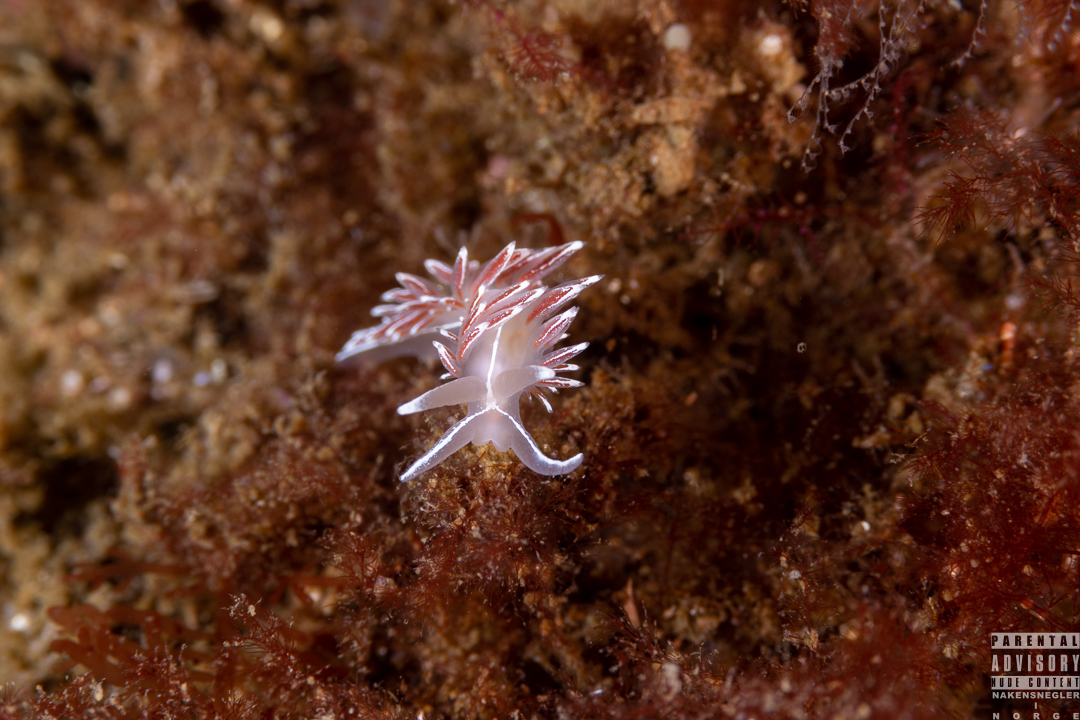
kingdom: Animalia
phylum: Mollusca
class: Gastropoda
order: Nudibranchia
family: Coryphellidae
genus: Coryphella
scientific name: Coryphella lineata
